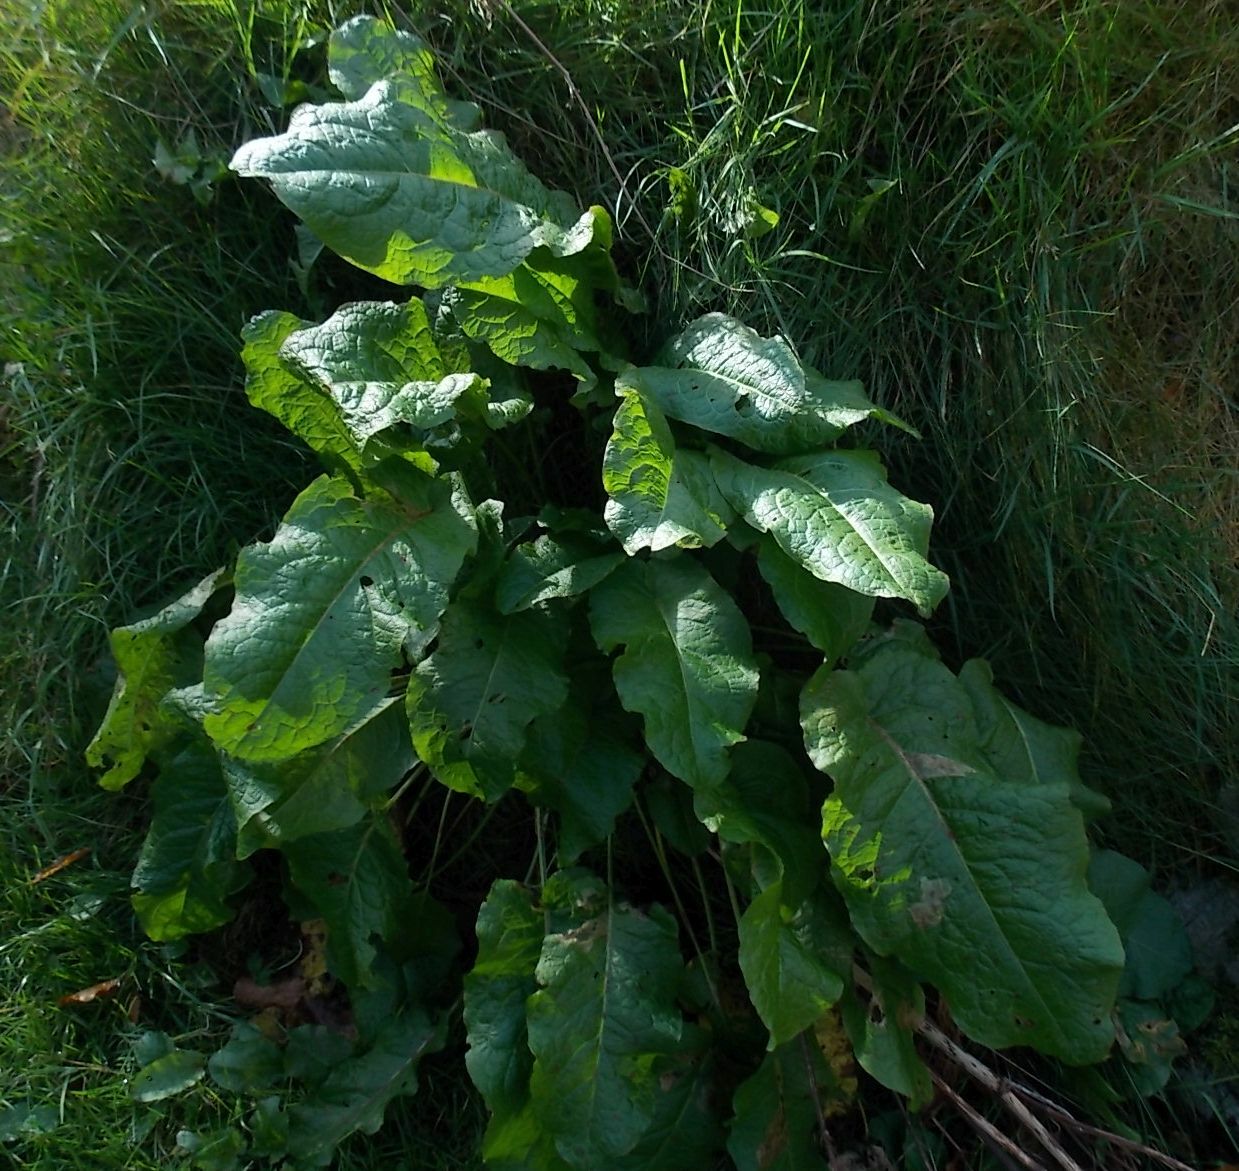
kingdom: Plantae
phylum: Tracheophyta
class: Magnoliopsida
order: Caryophyllales
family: Polygonaceae
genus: Rumex
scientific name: Rumex obtusifolius
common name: Bitter dock
